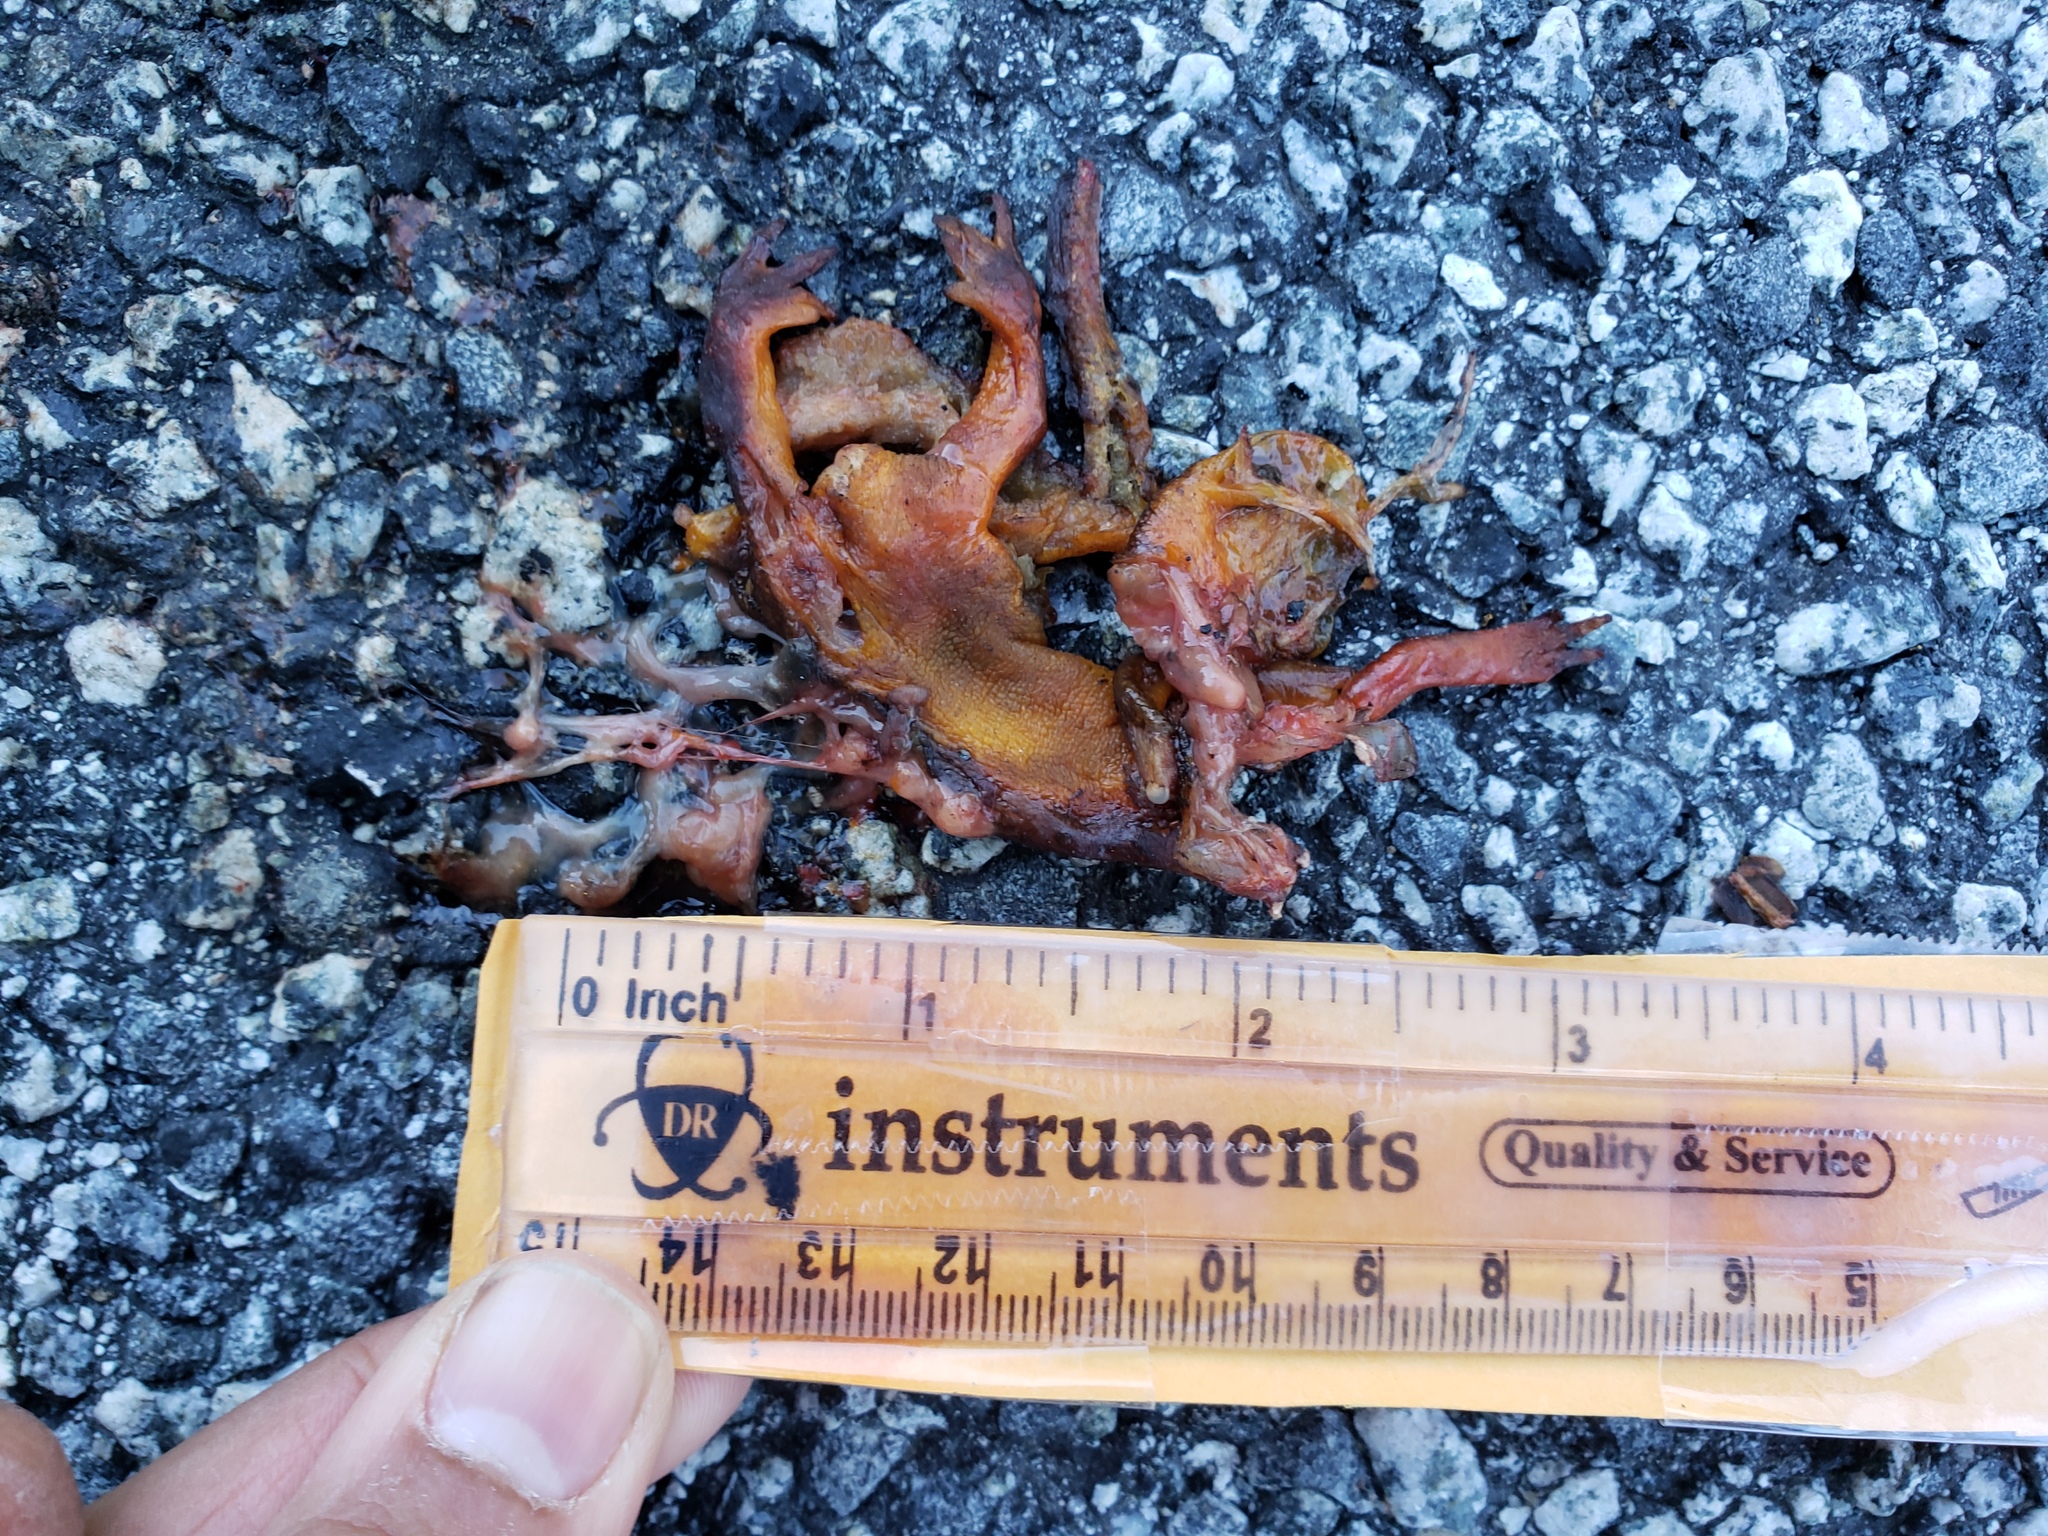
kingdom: Animalia
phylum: Chordata
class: Amphibia
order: Caudata
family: Salamandridae
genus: Taricha
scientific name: Taricha
